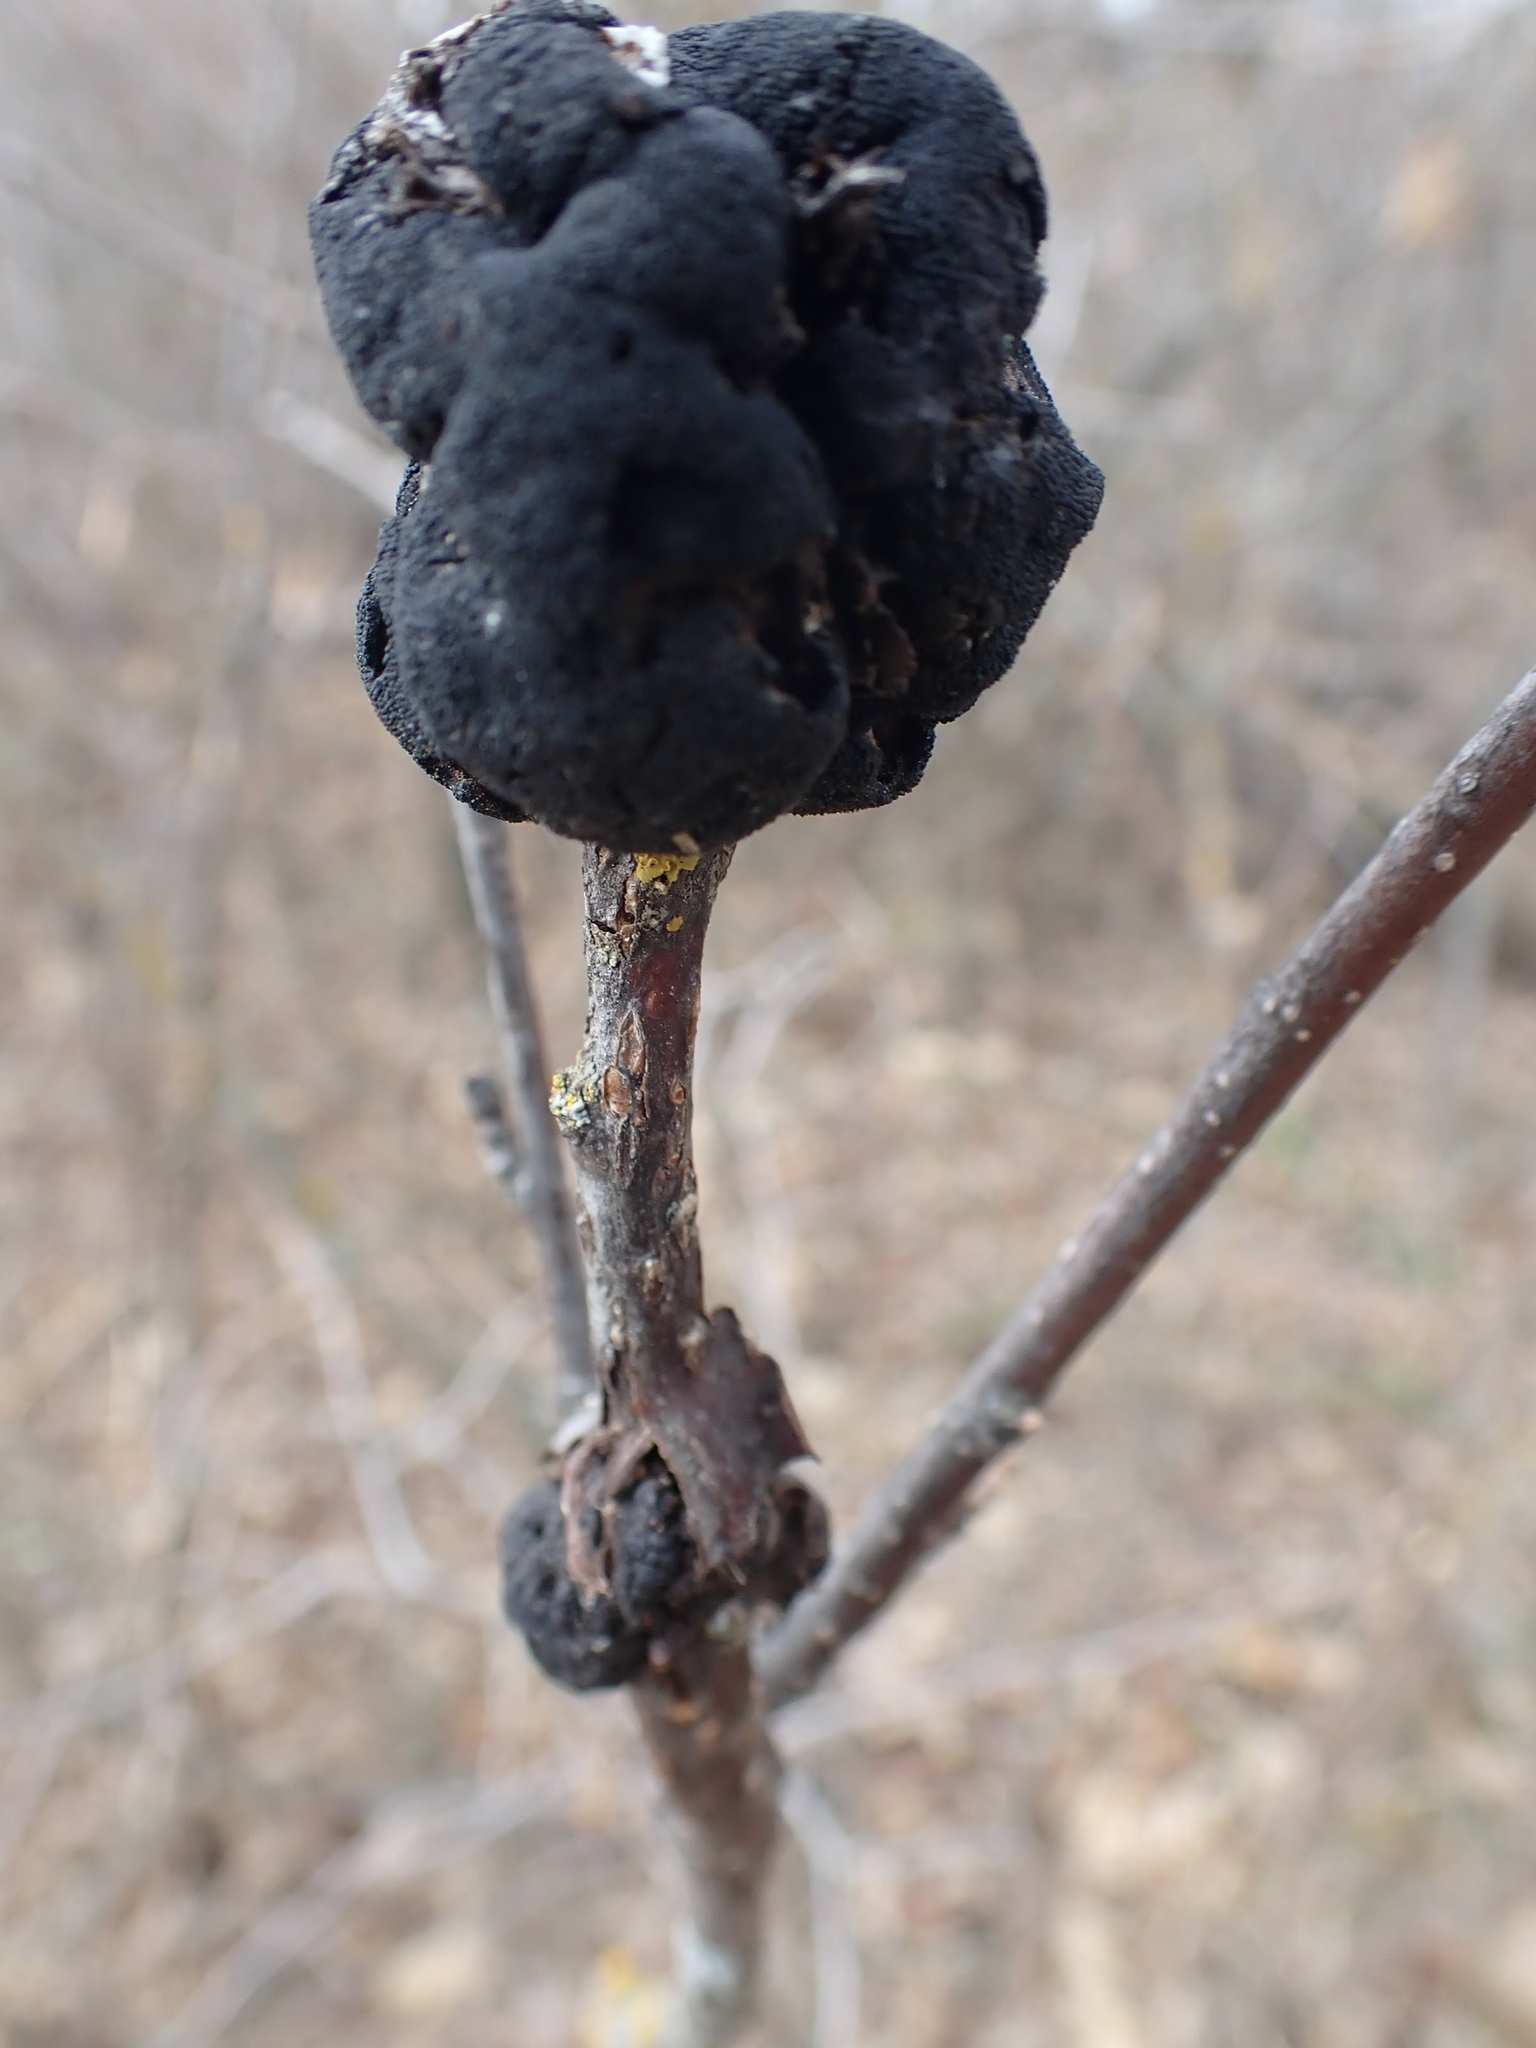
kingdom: Fungi
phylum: Ascomycota
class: Dothideomycetes
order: Venturiales
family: Venturiaceae
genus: Apiosporina
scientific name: Apiosporina morbosa
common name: Black knot
